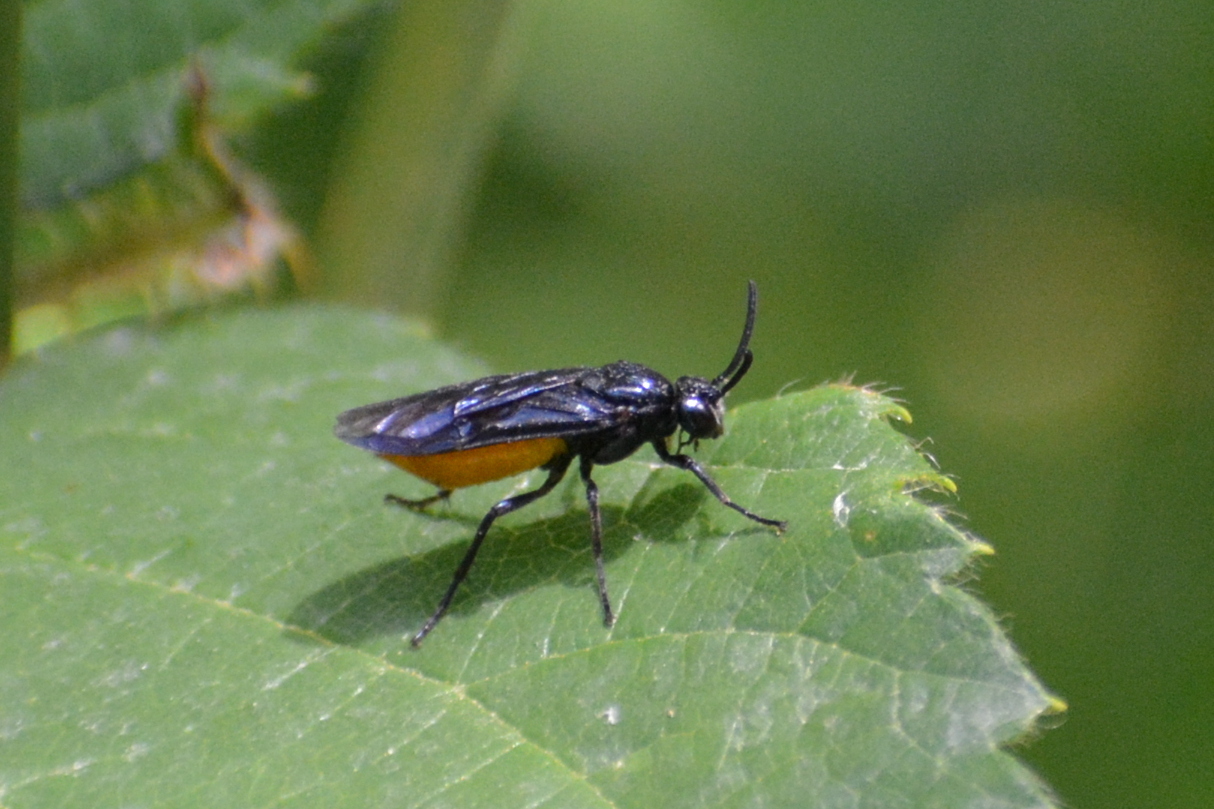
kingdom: Animalia
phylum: Arthropoda
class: Insecta
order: Hymenoptera
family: Argidae
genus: Arge
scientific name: Arge pagana
